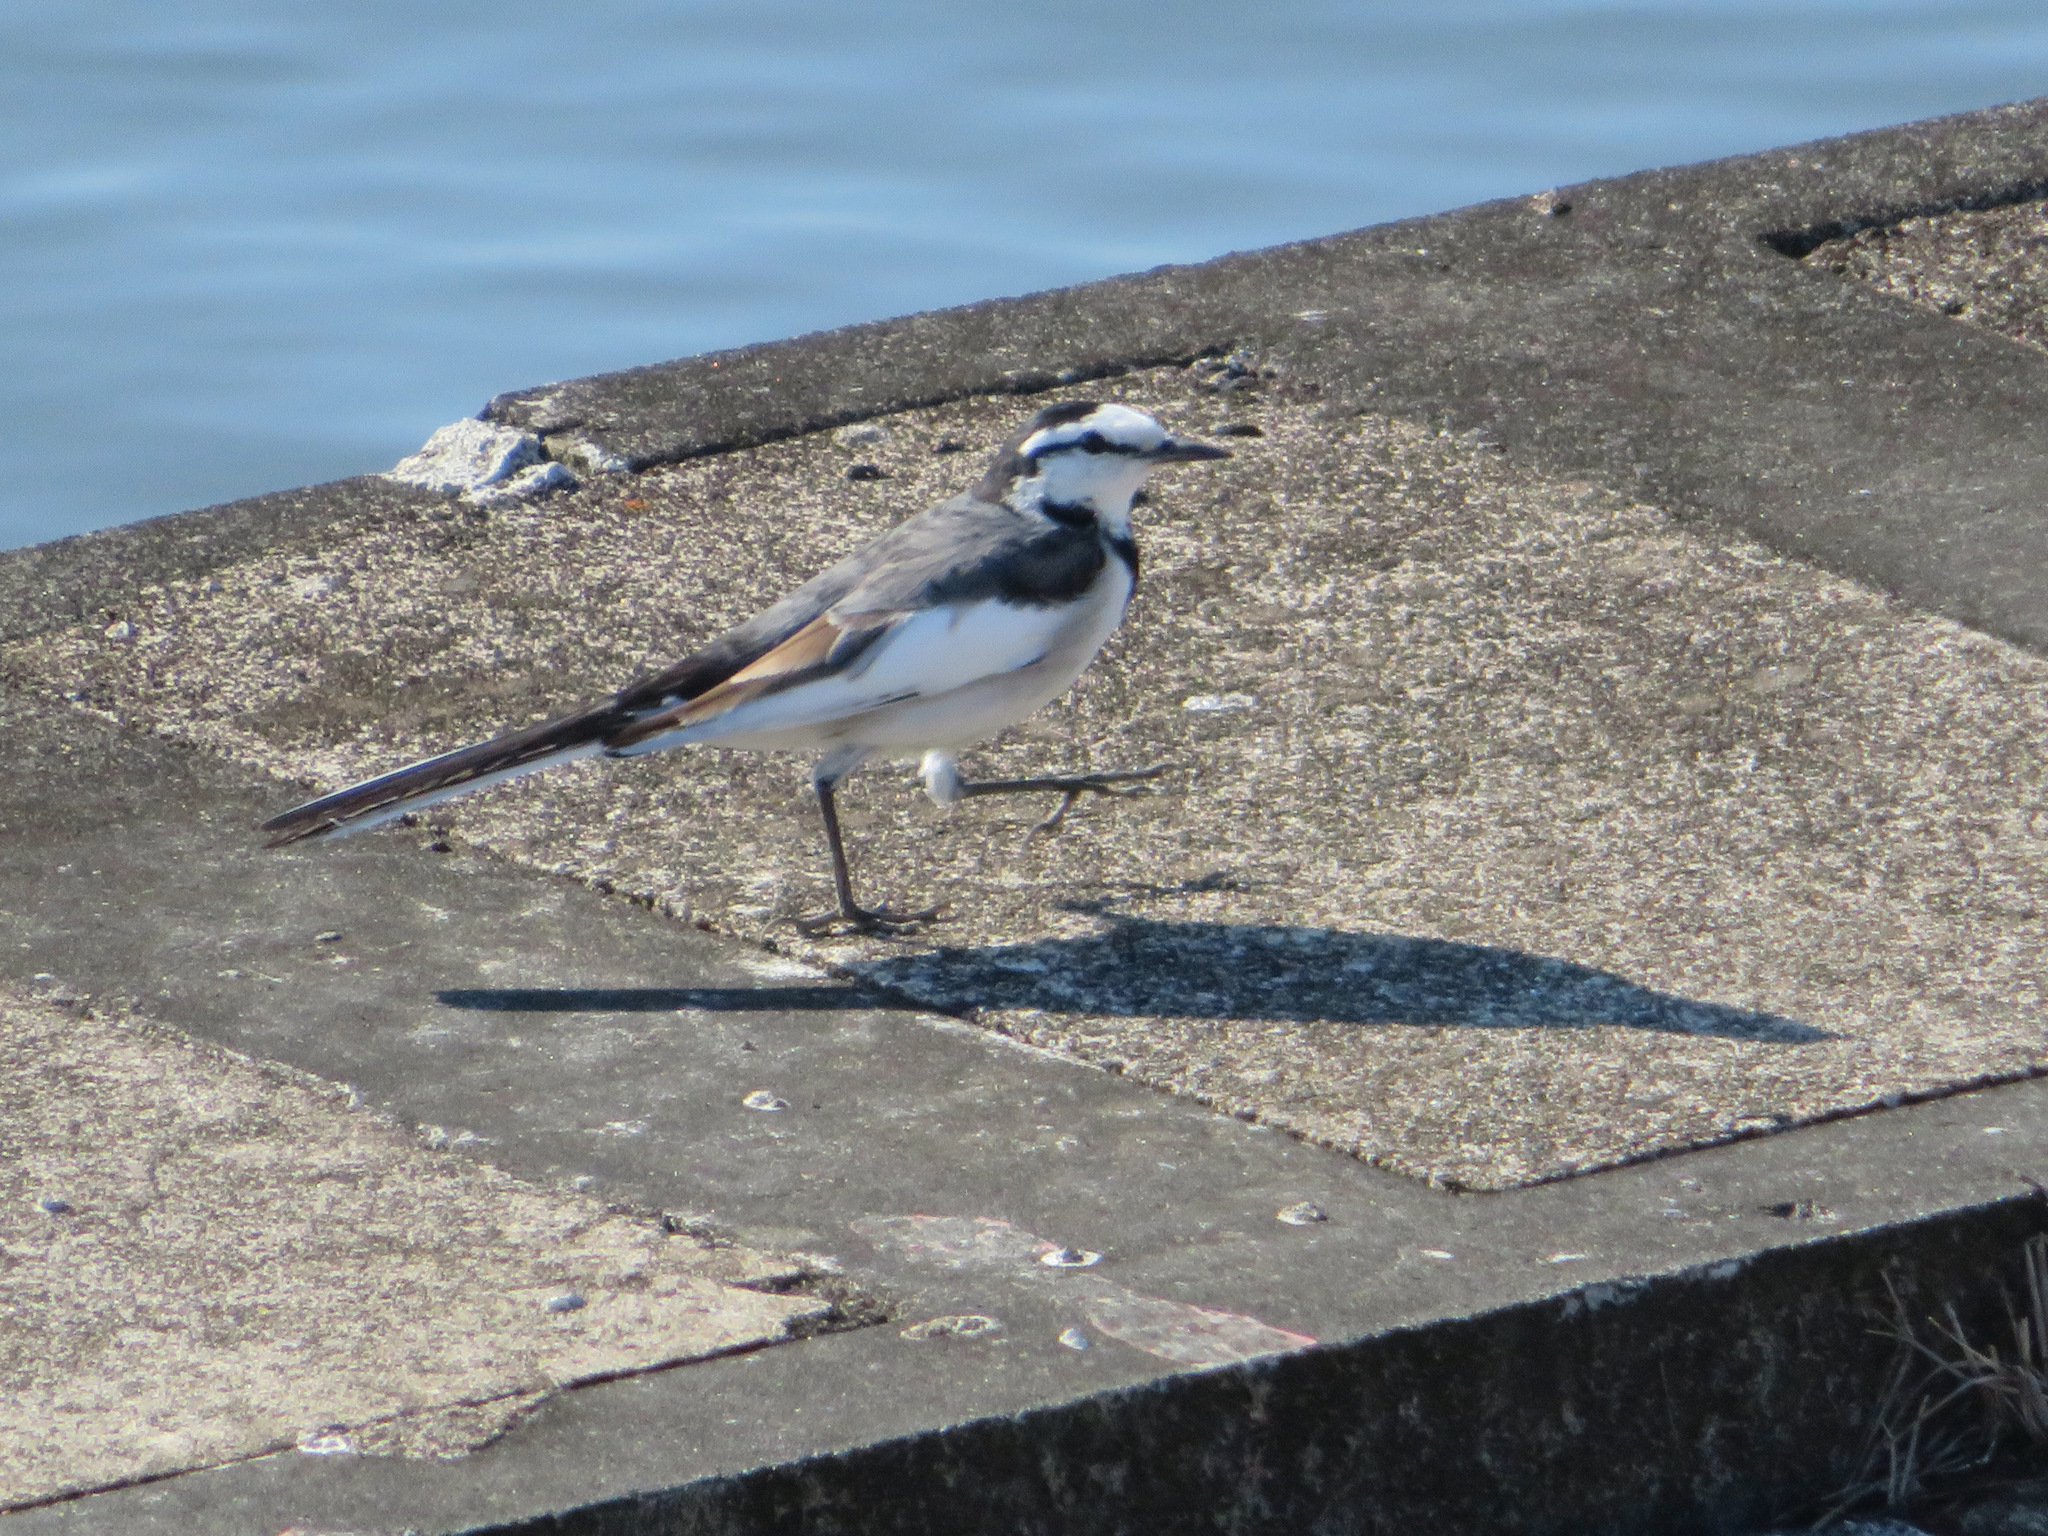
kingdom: Animalia
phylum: Chordata
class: Aves
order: Passeriformes
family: Motacillidae
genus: Motacilla
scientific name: Motacilla alba
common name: White wagtail
